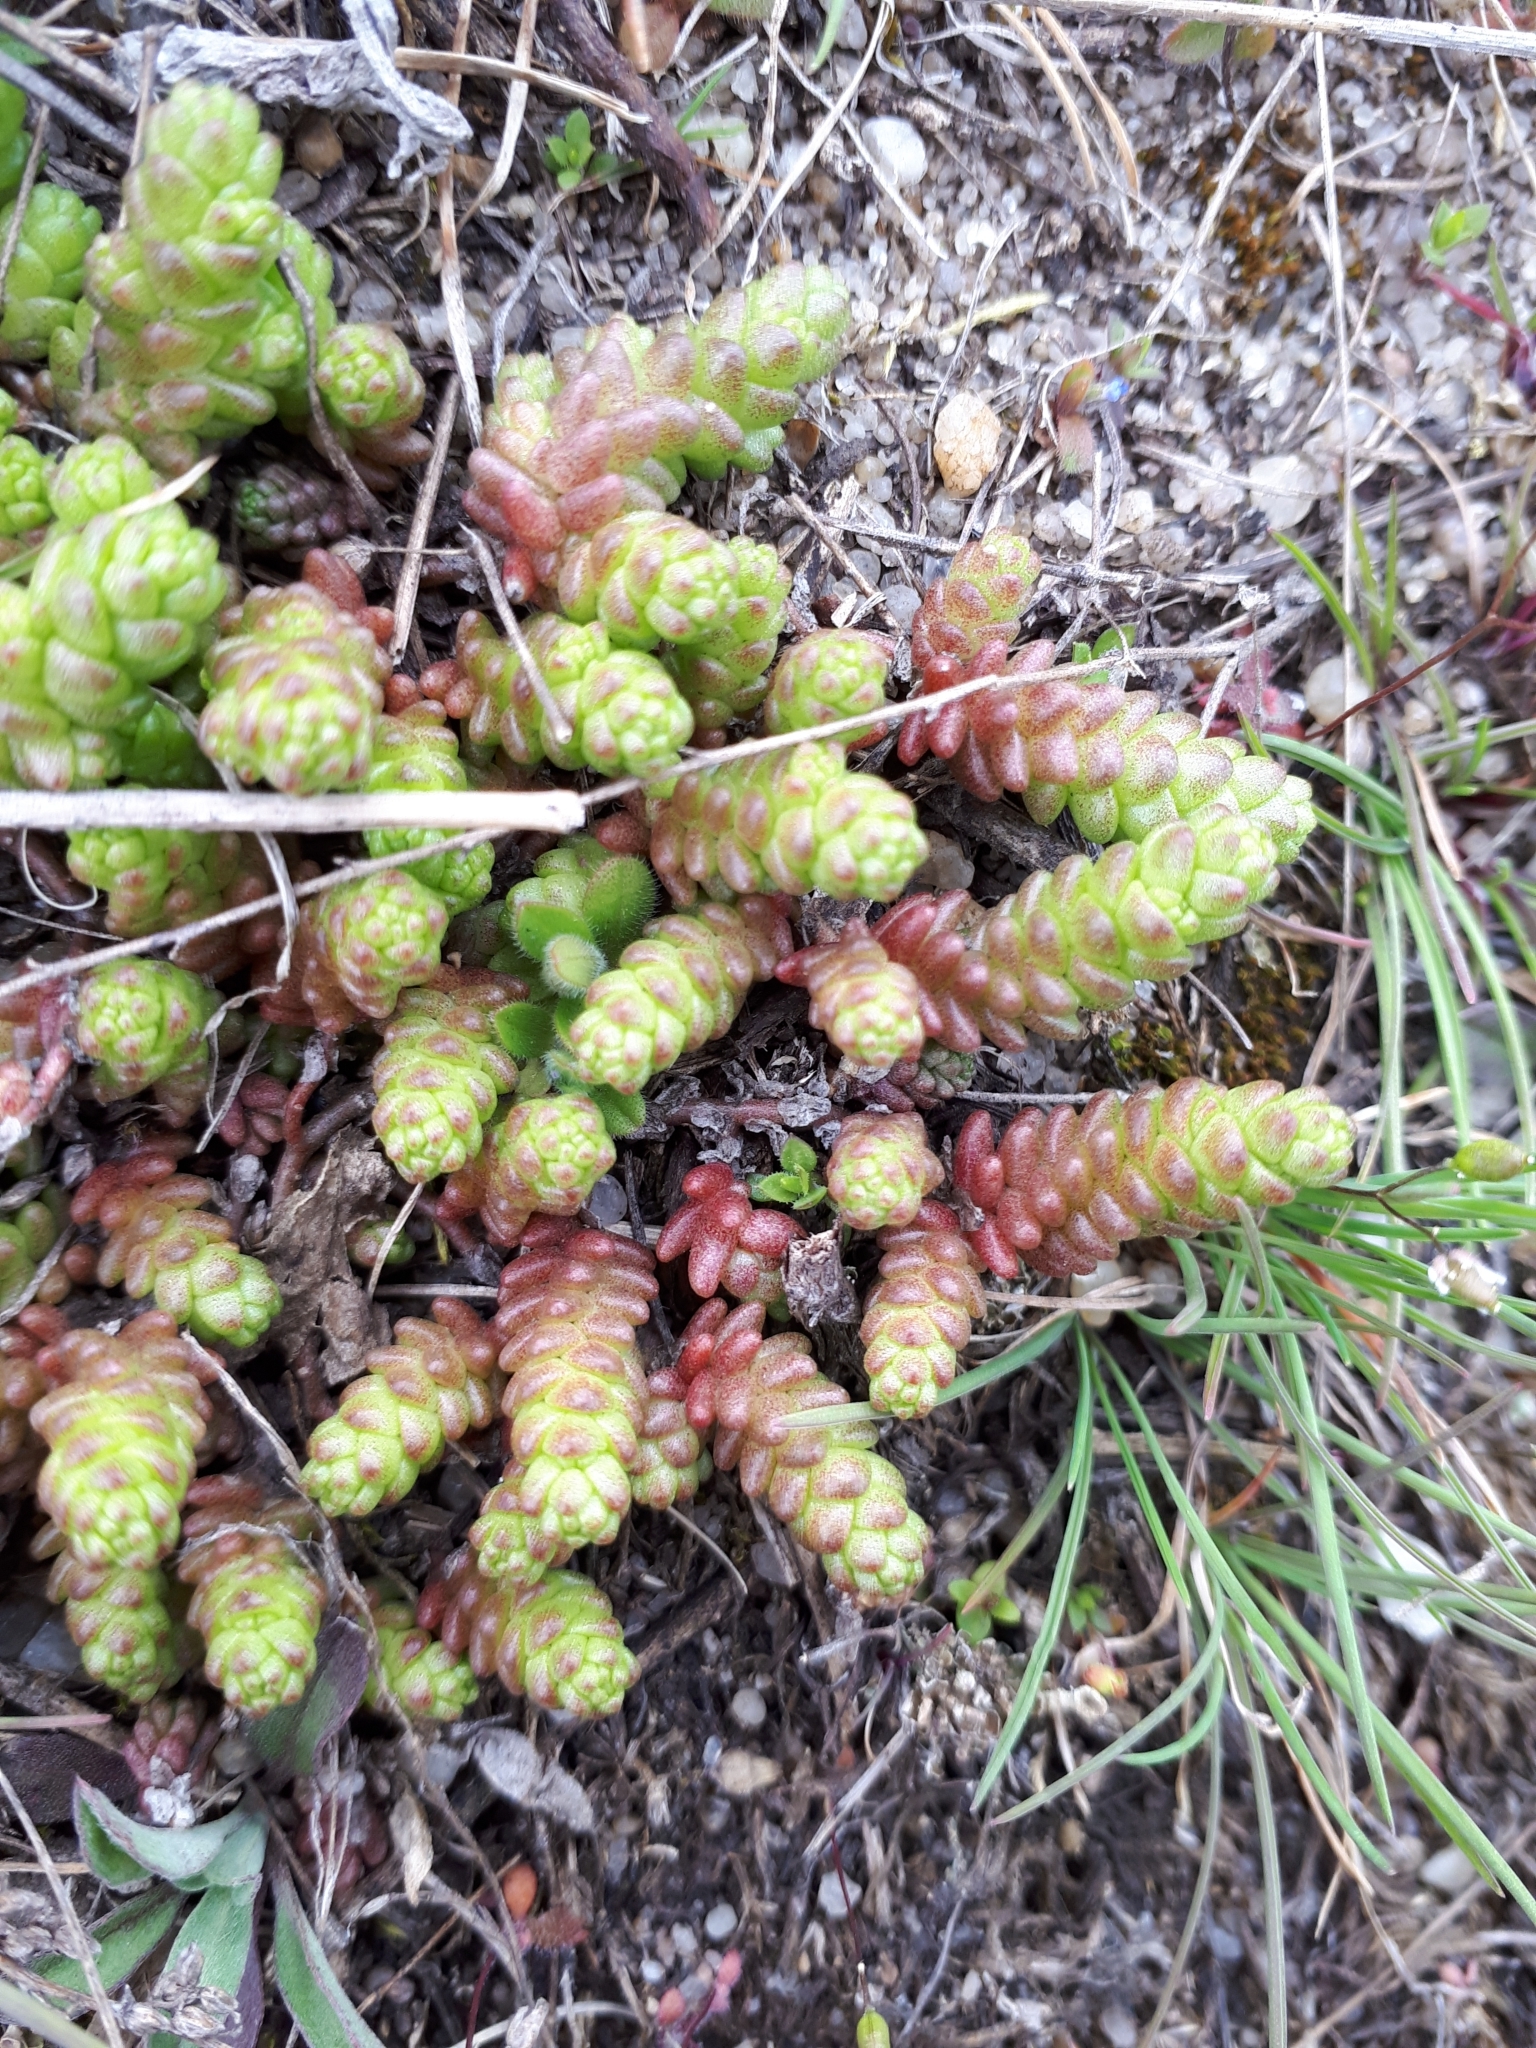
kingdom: Plantae
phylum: Tracheophyta
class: Magnoliopsida
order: Saxifragales
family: Crassulaceae
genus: Sedum
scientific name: Sedum acre
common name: Biting stonecrop
